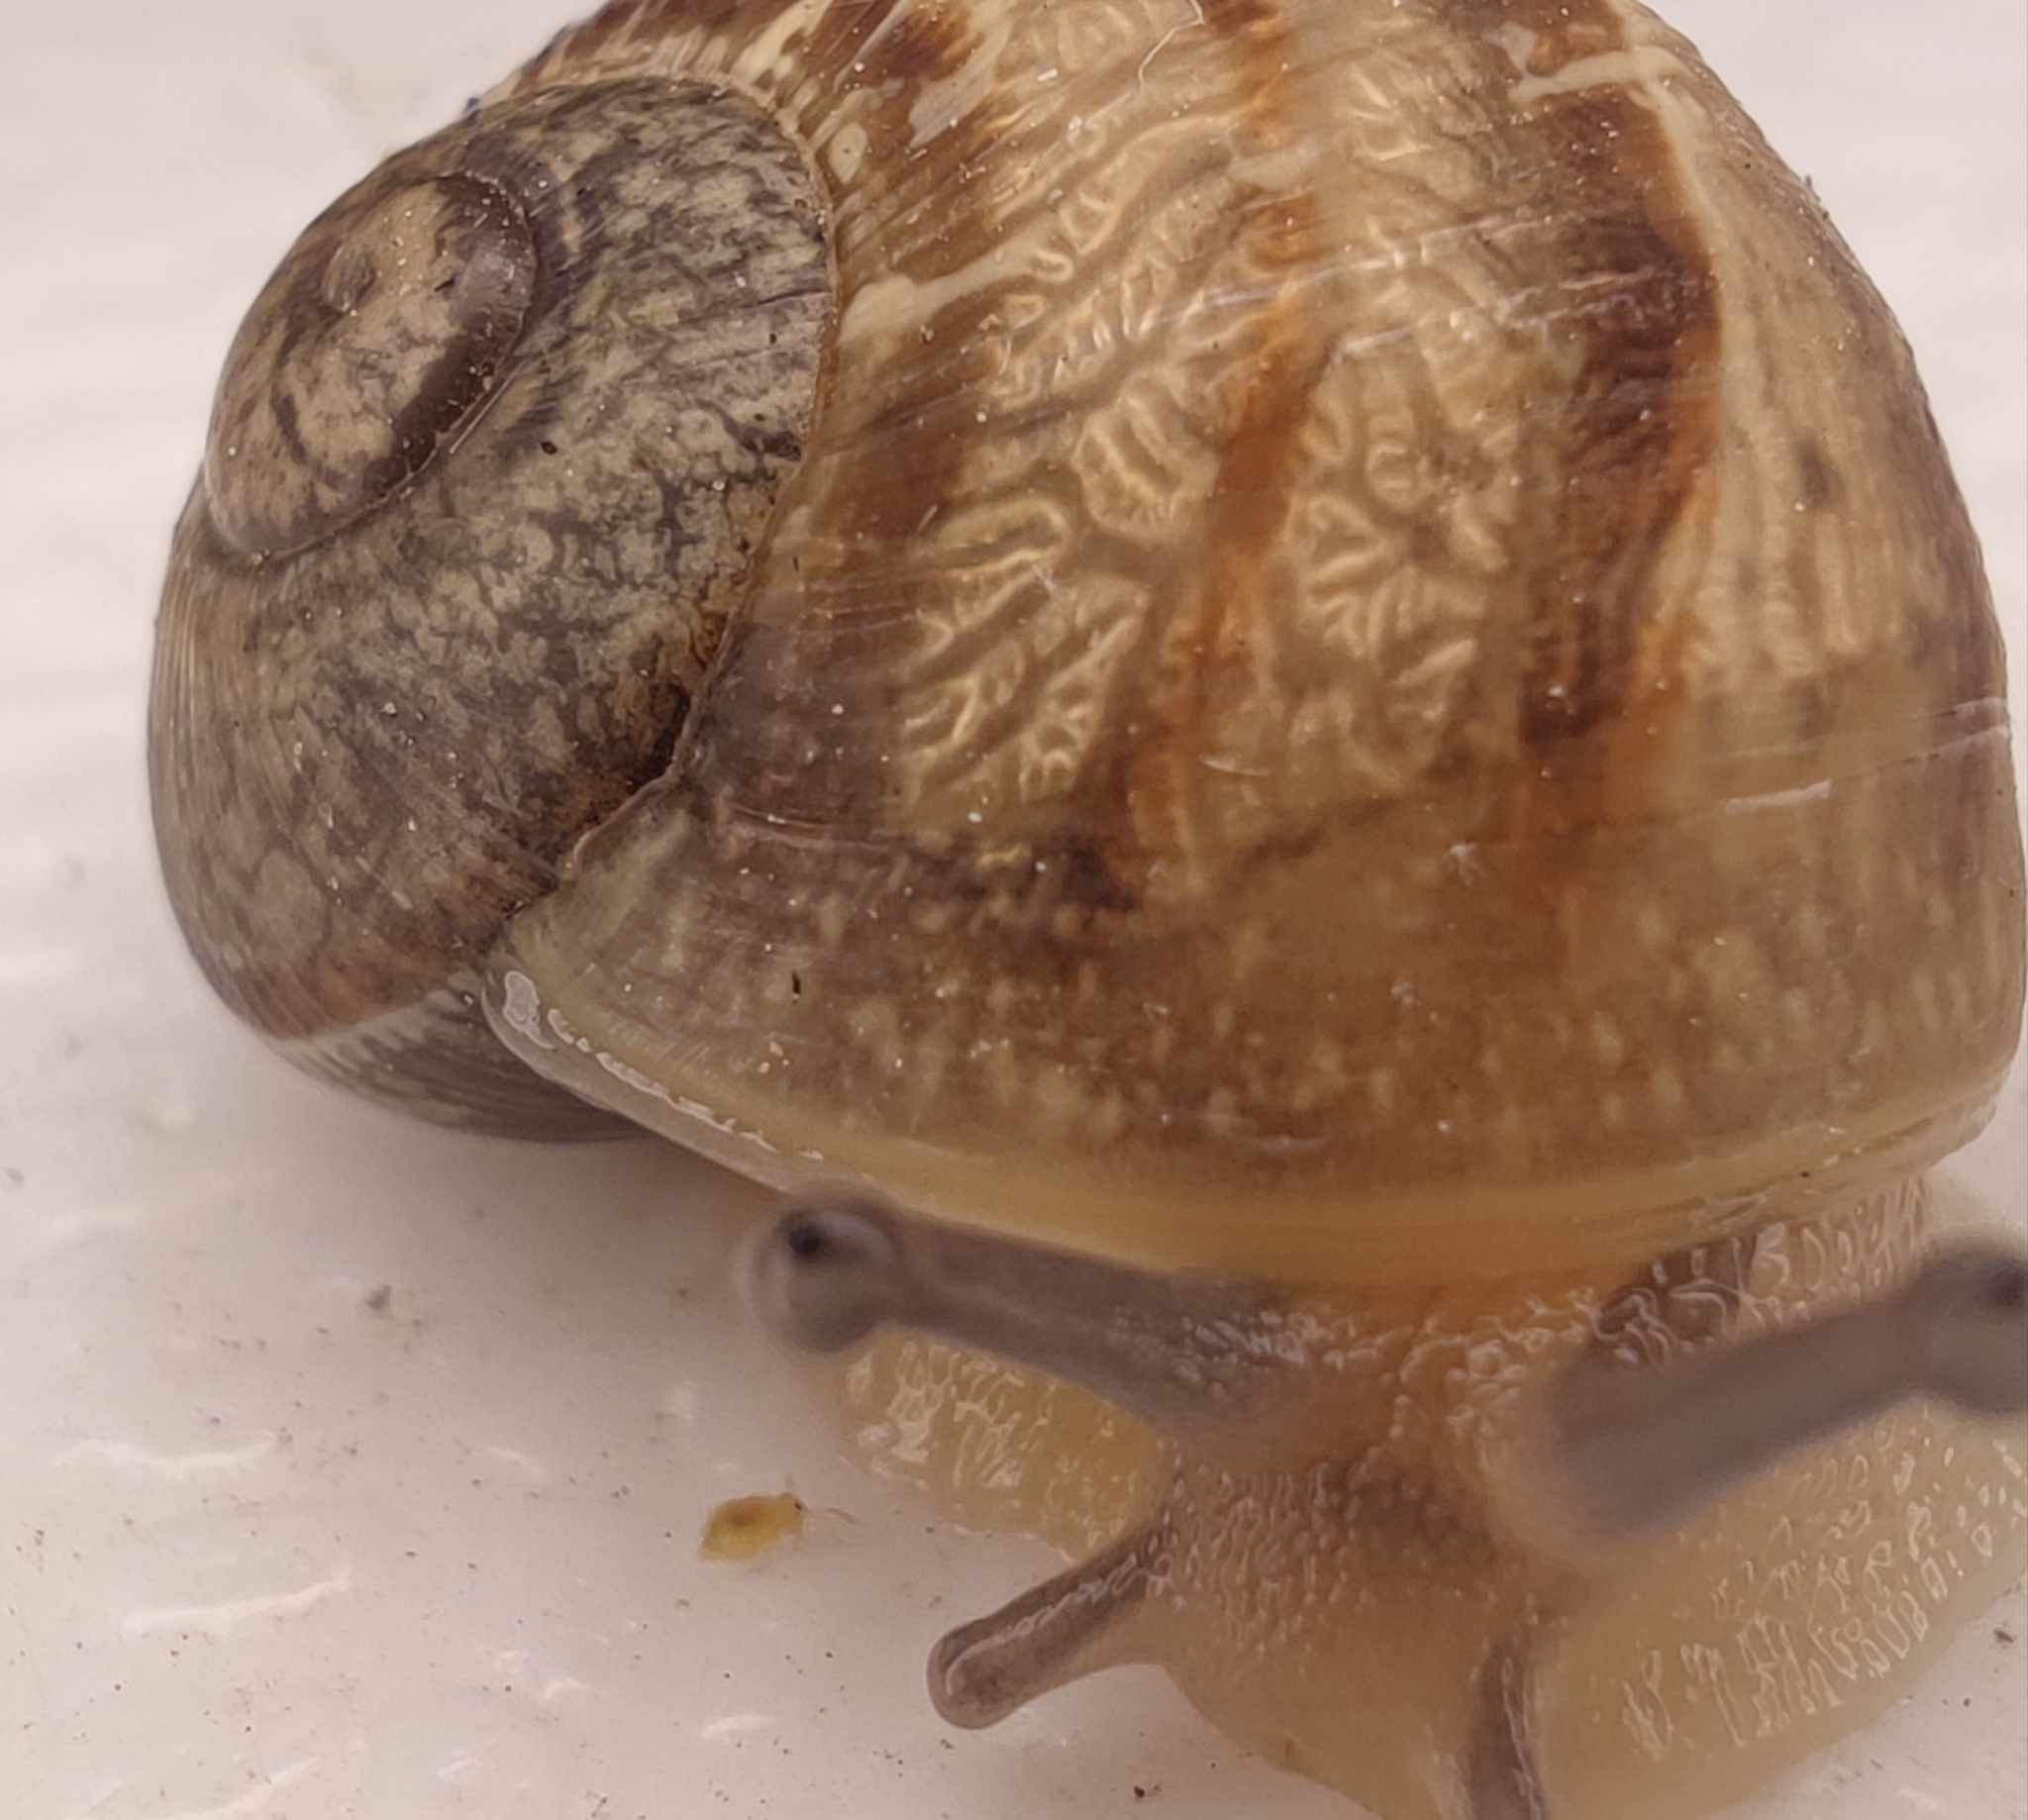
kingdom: Animalia
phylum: Mollusca
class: Gastropoda
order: Stylommatophora
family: Helicidae
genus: Cornu
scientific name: Cornu aspersum
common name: Brown garden snail
